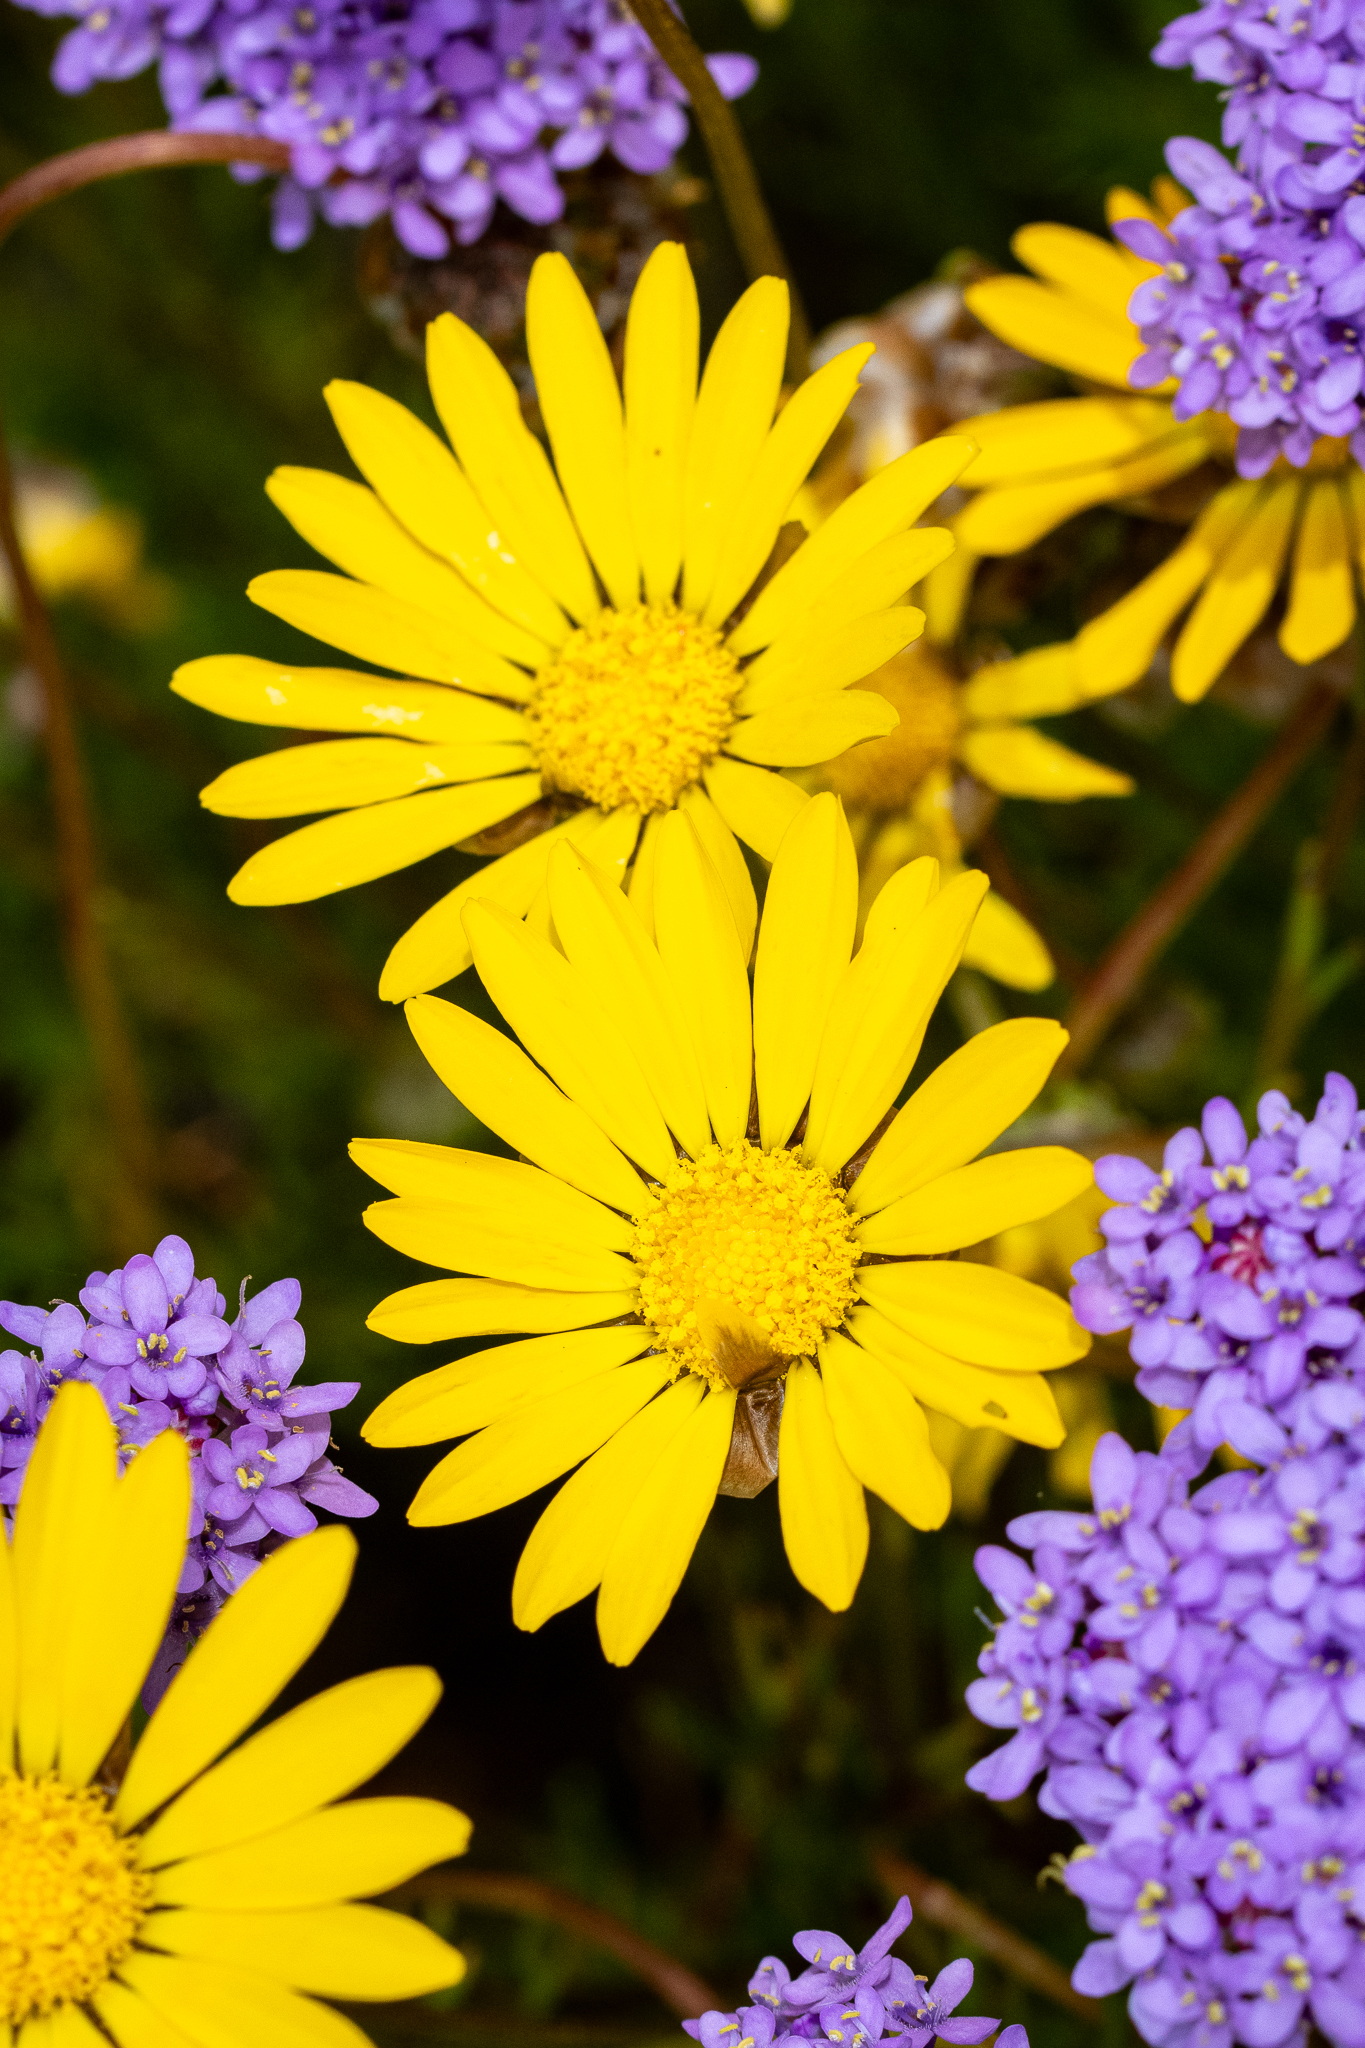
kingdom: Plantae
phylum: Tracheophyta
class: Magnoliopsida
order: Asterales
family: Asteraceae
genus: Ursinia
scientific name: Ursinia paleacea
